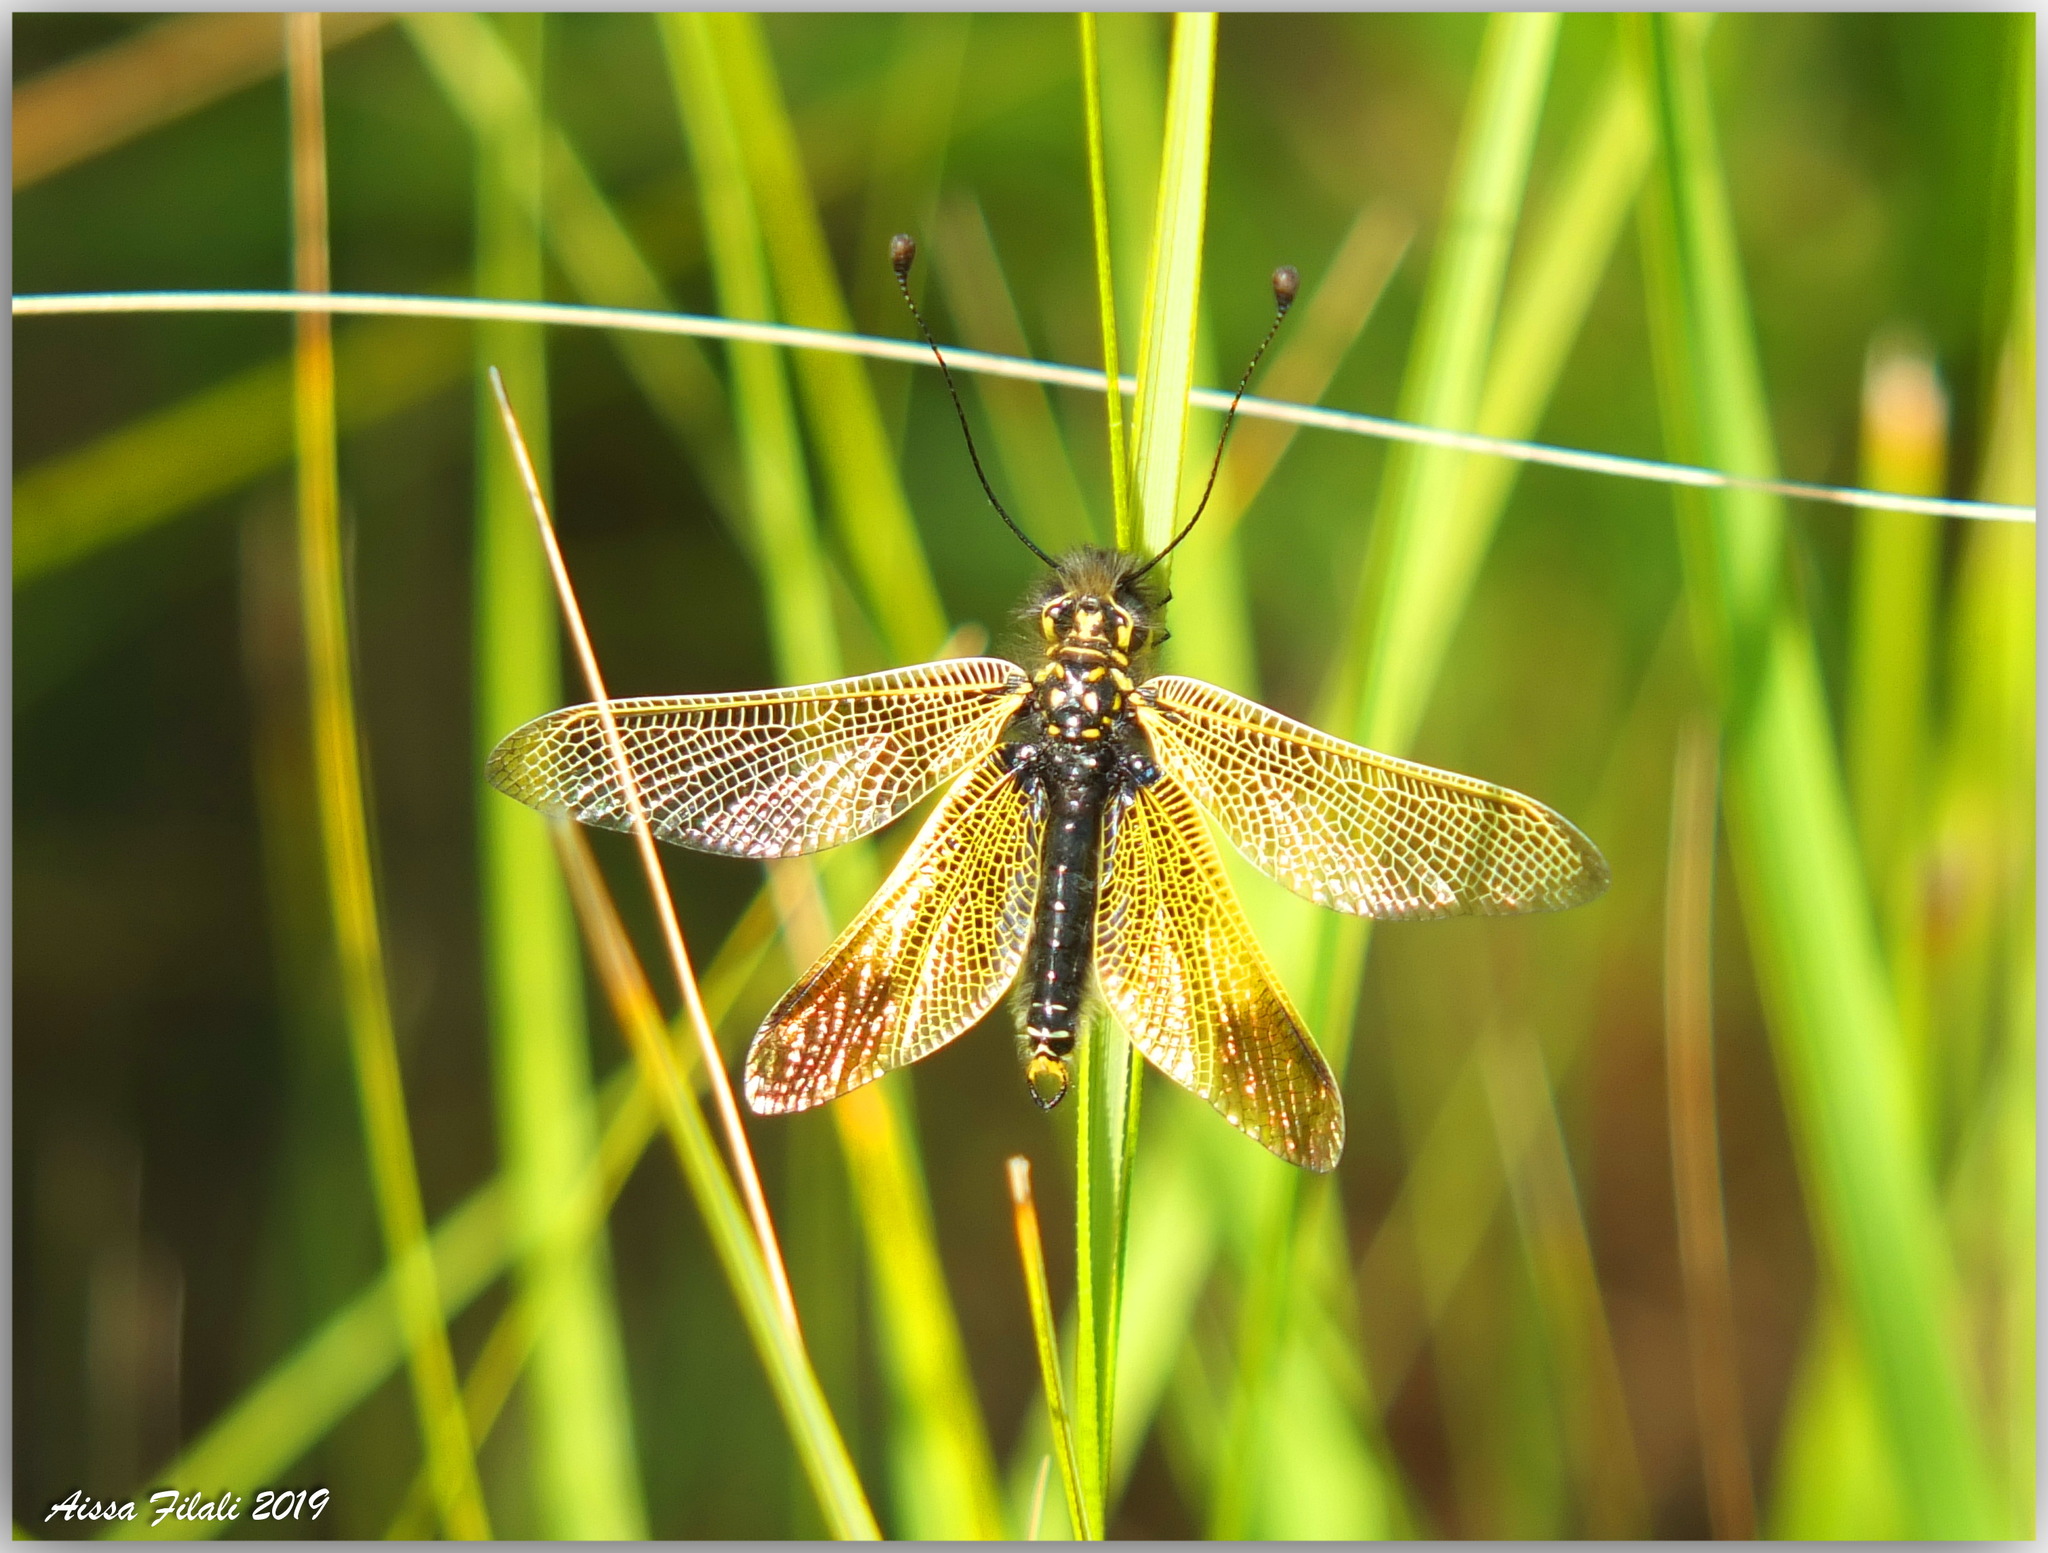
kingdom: Animalia
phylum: Arthropoda
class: Insecta
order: Neuroptera
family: Ascalaphidae
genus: Libelloides
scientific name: Libelloides ictericus
